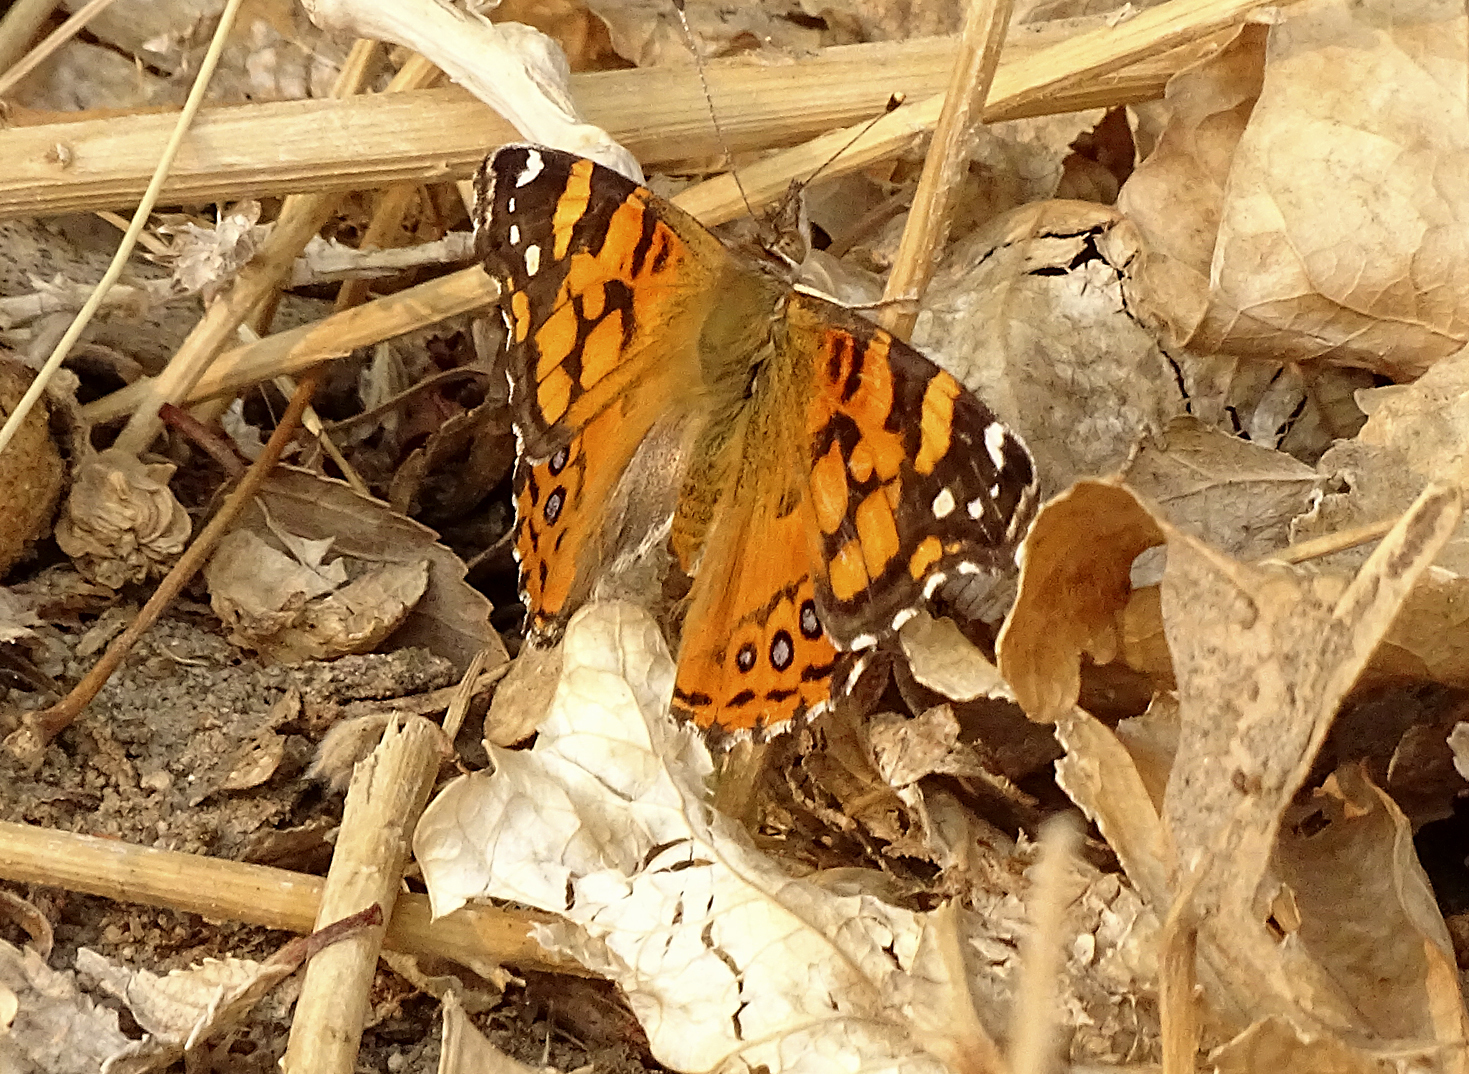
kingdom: Animalia
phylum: Arthropoda
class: Insecta
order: Lepidoptera
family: Nymphalidae
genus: Vanessa
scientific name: Vanessa annabella
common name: West coast lady
